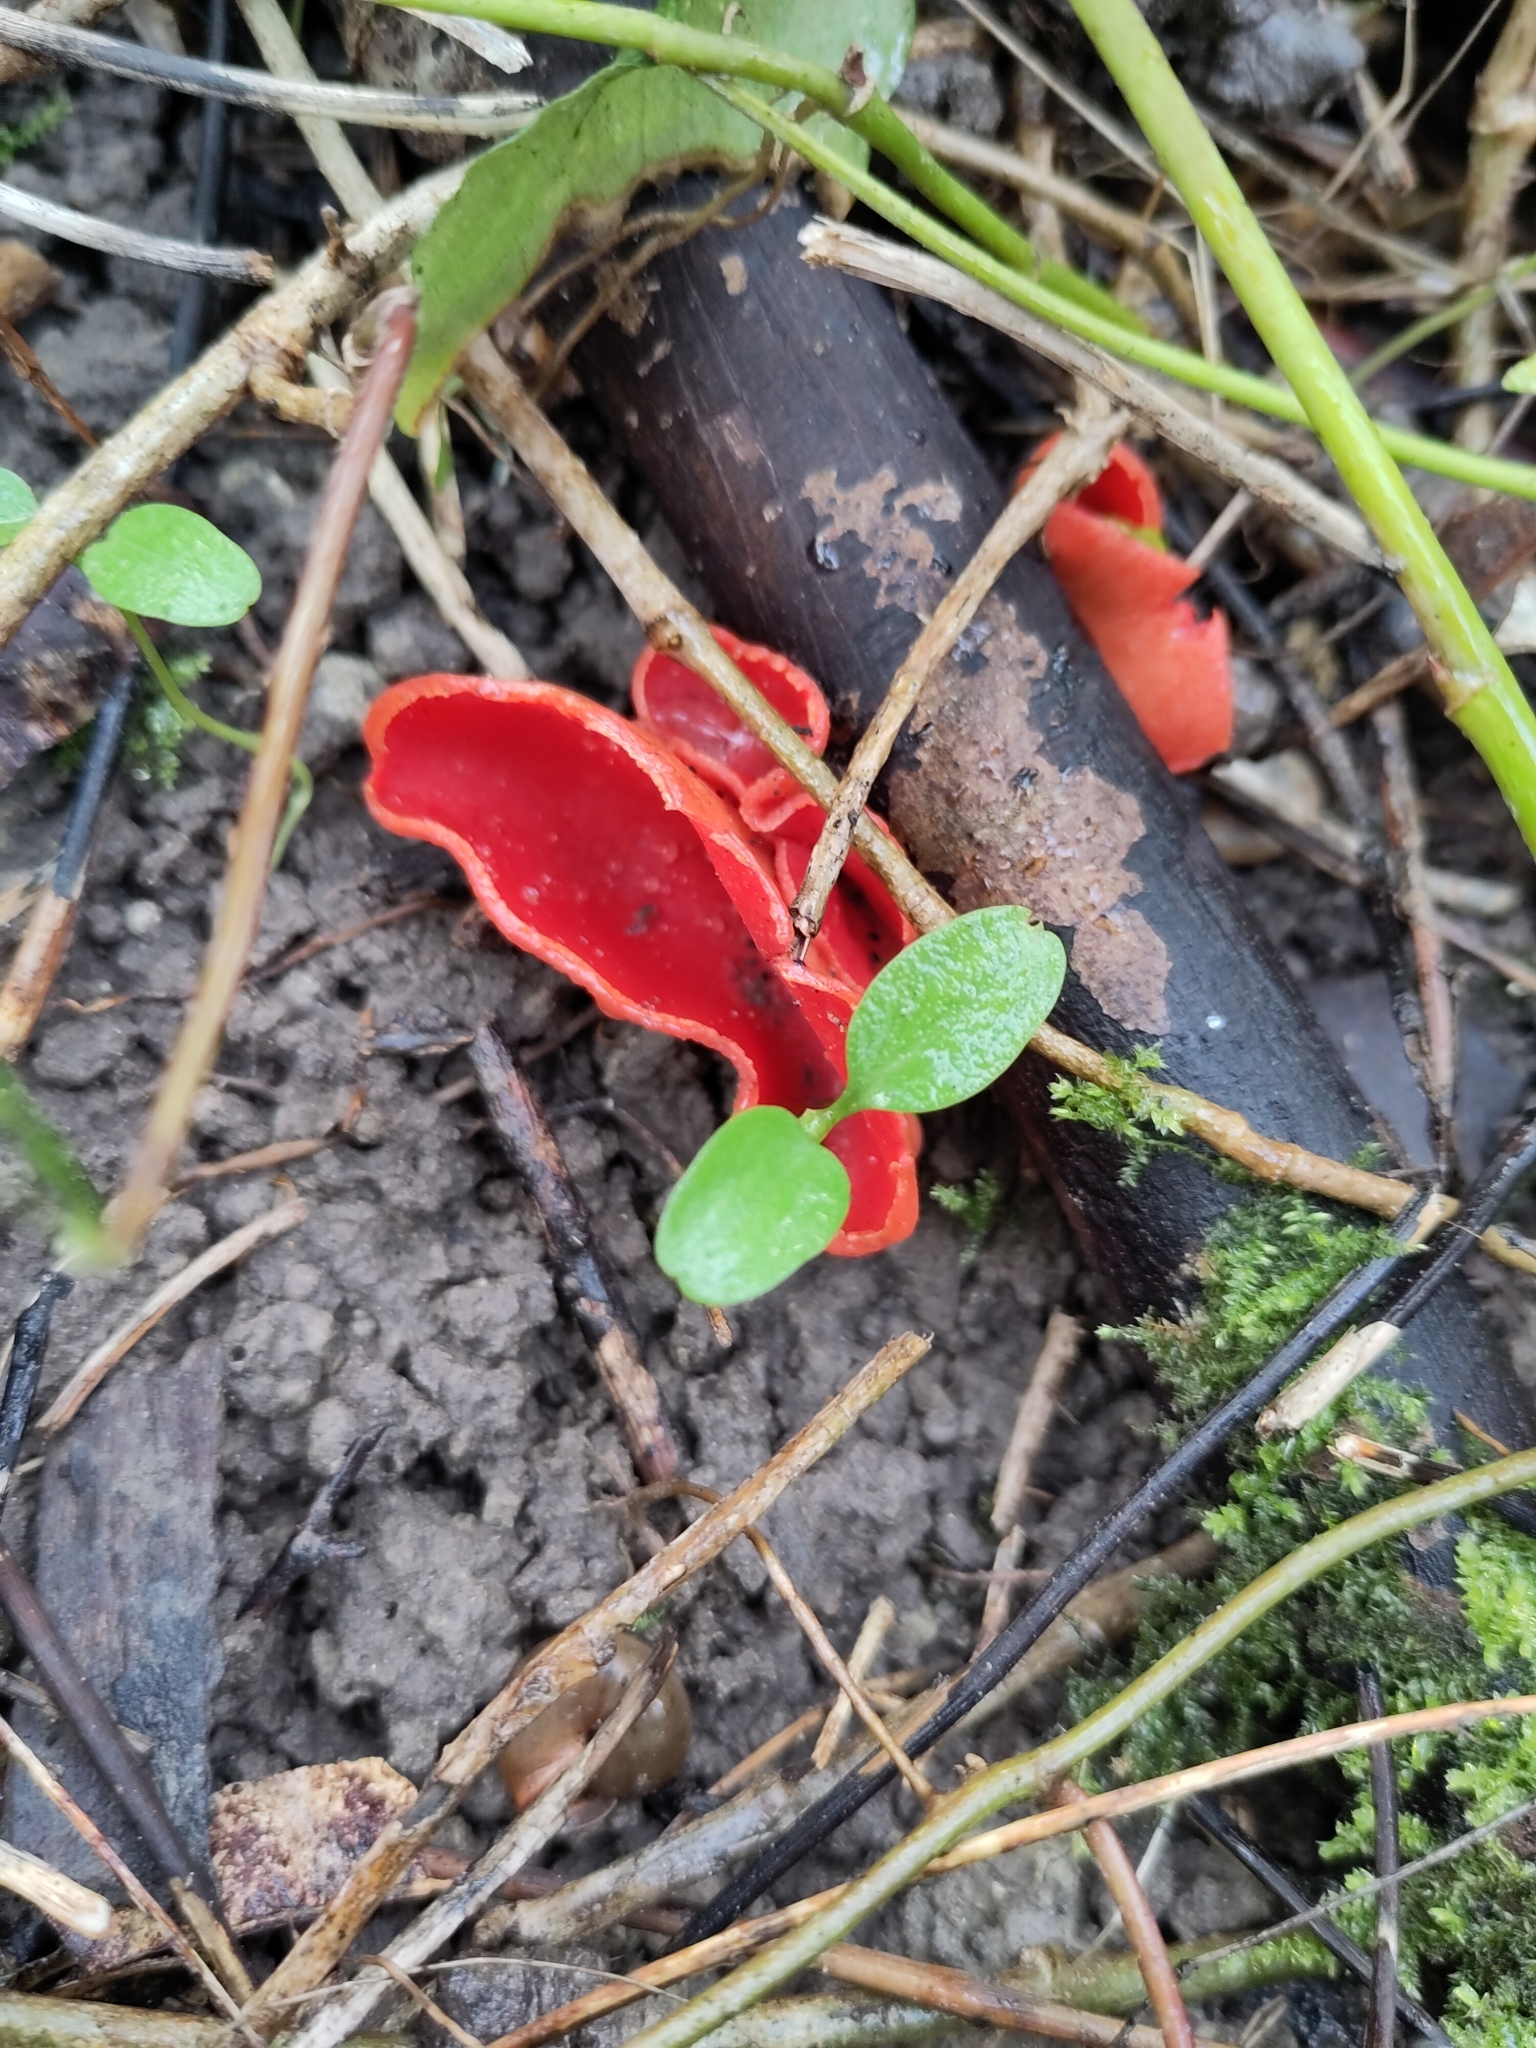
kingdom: Fungi
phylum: Ascomycota
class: Pezizomycetes
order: Pezizales
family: Sarcoscyphaceae
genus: Sarcoscypha
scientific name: Sarcoscypha
